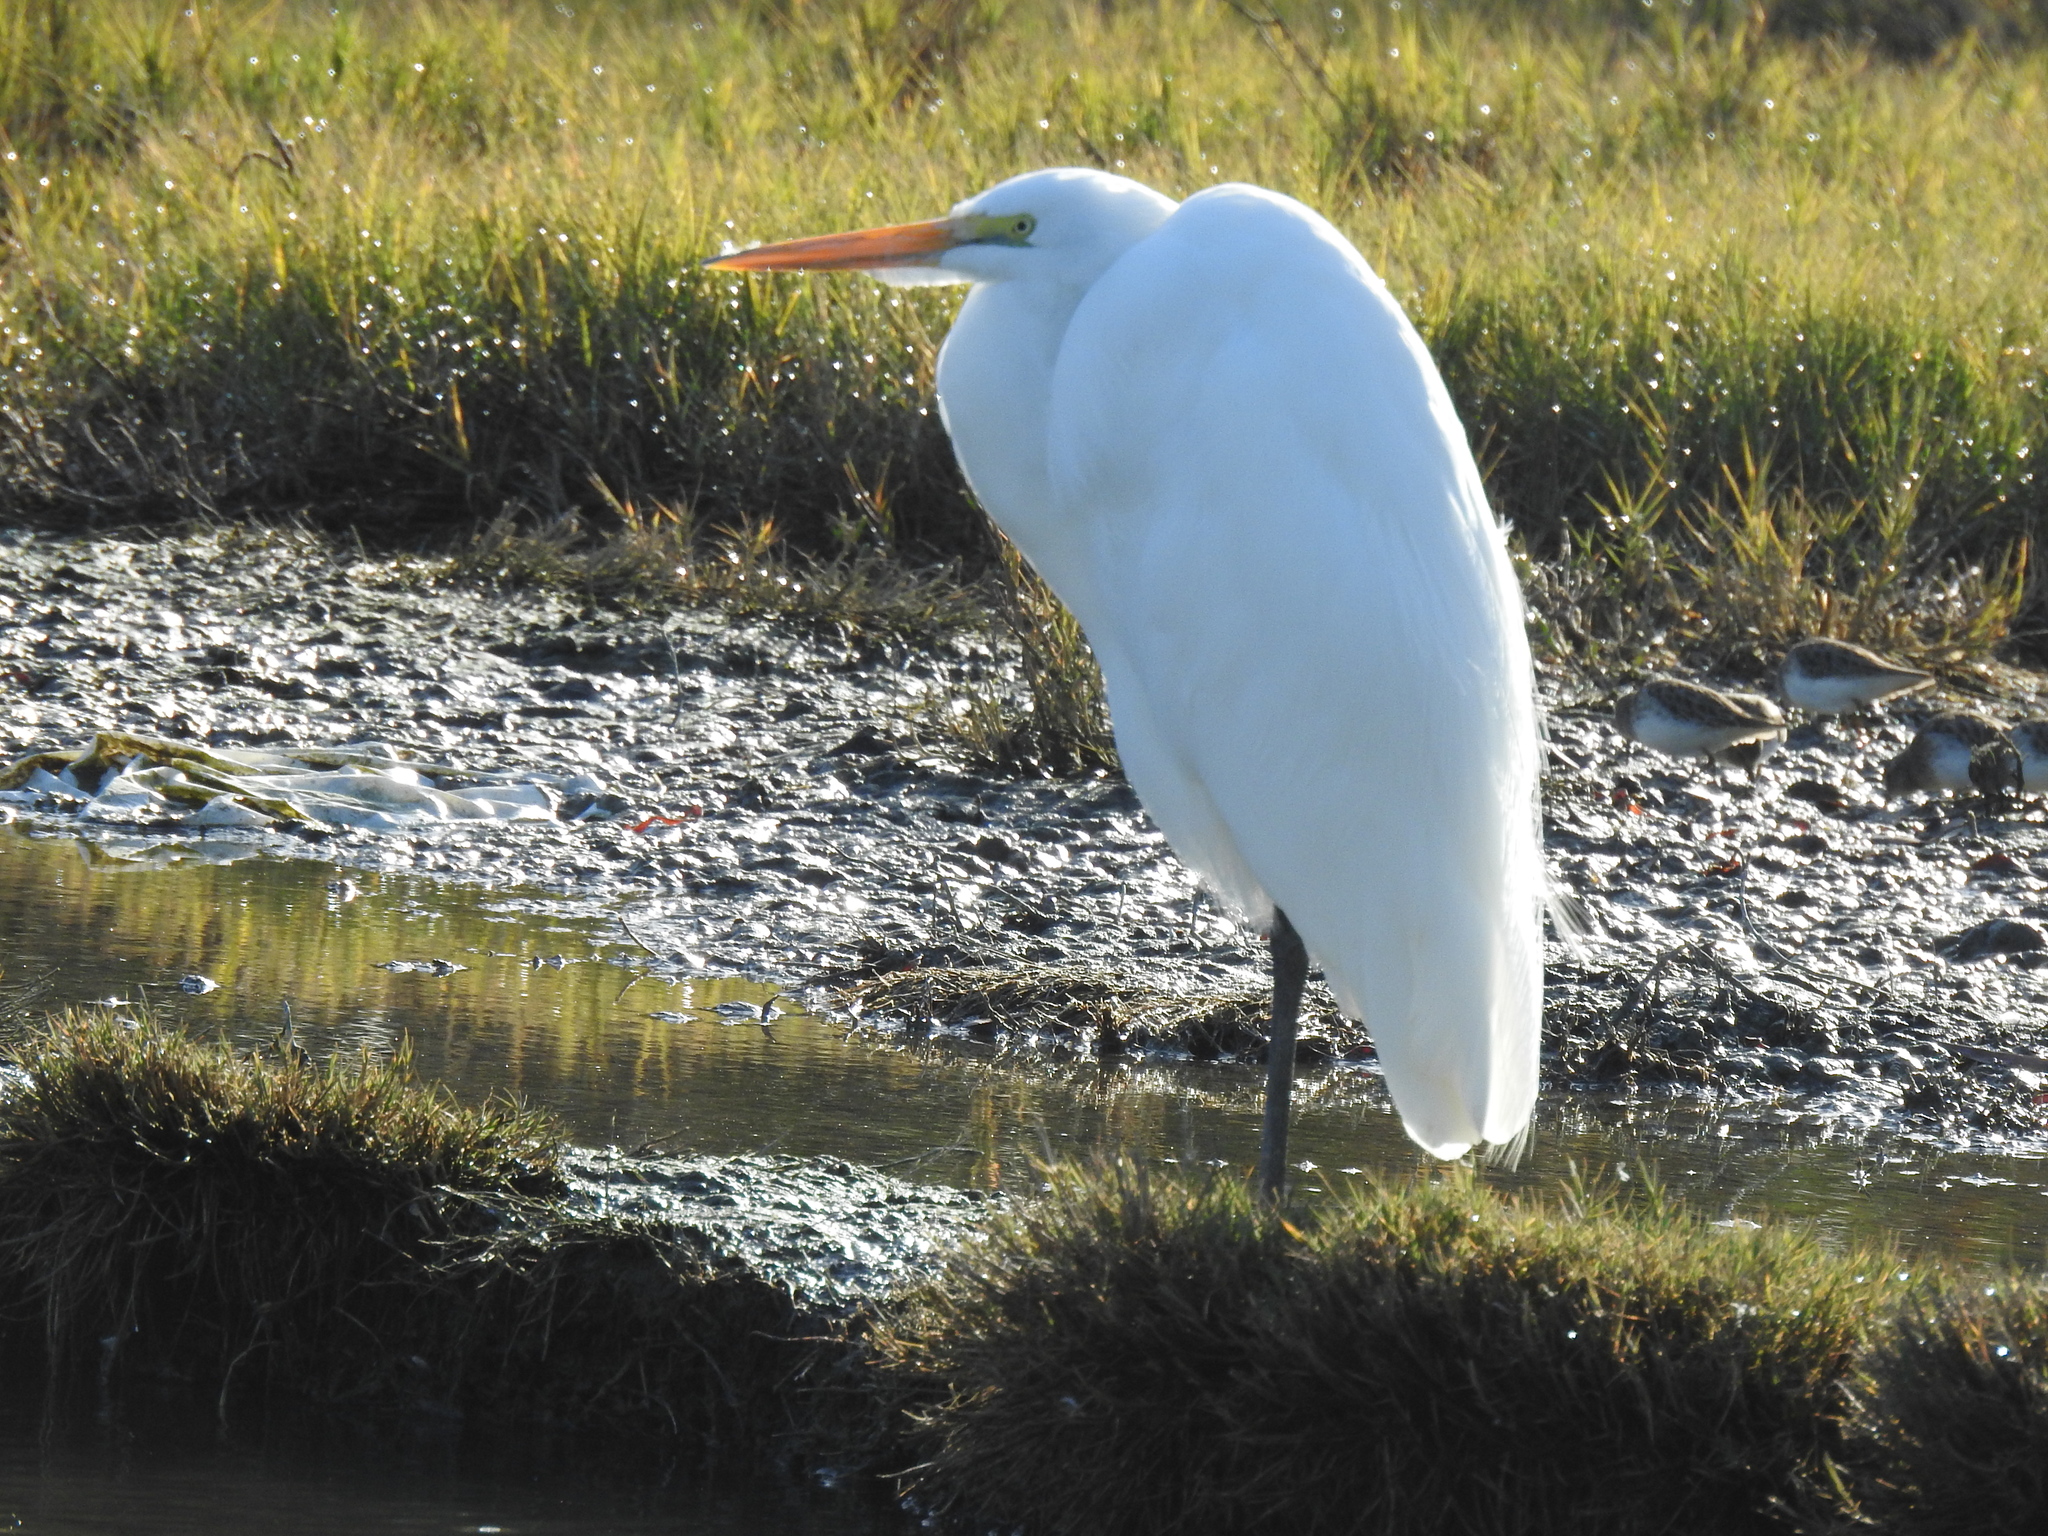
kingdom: Animalia
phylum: Chordata
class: Aves
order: Pelecaniformes
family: Ardeidae
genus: Ardea
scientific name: Ardea alba
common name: Great egret
